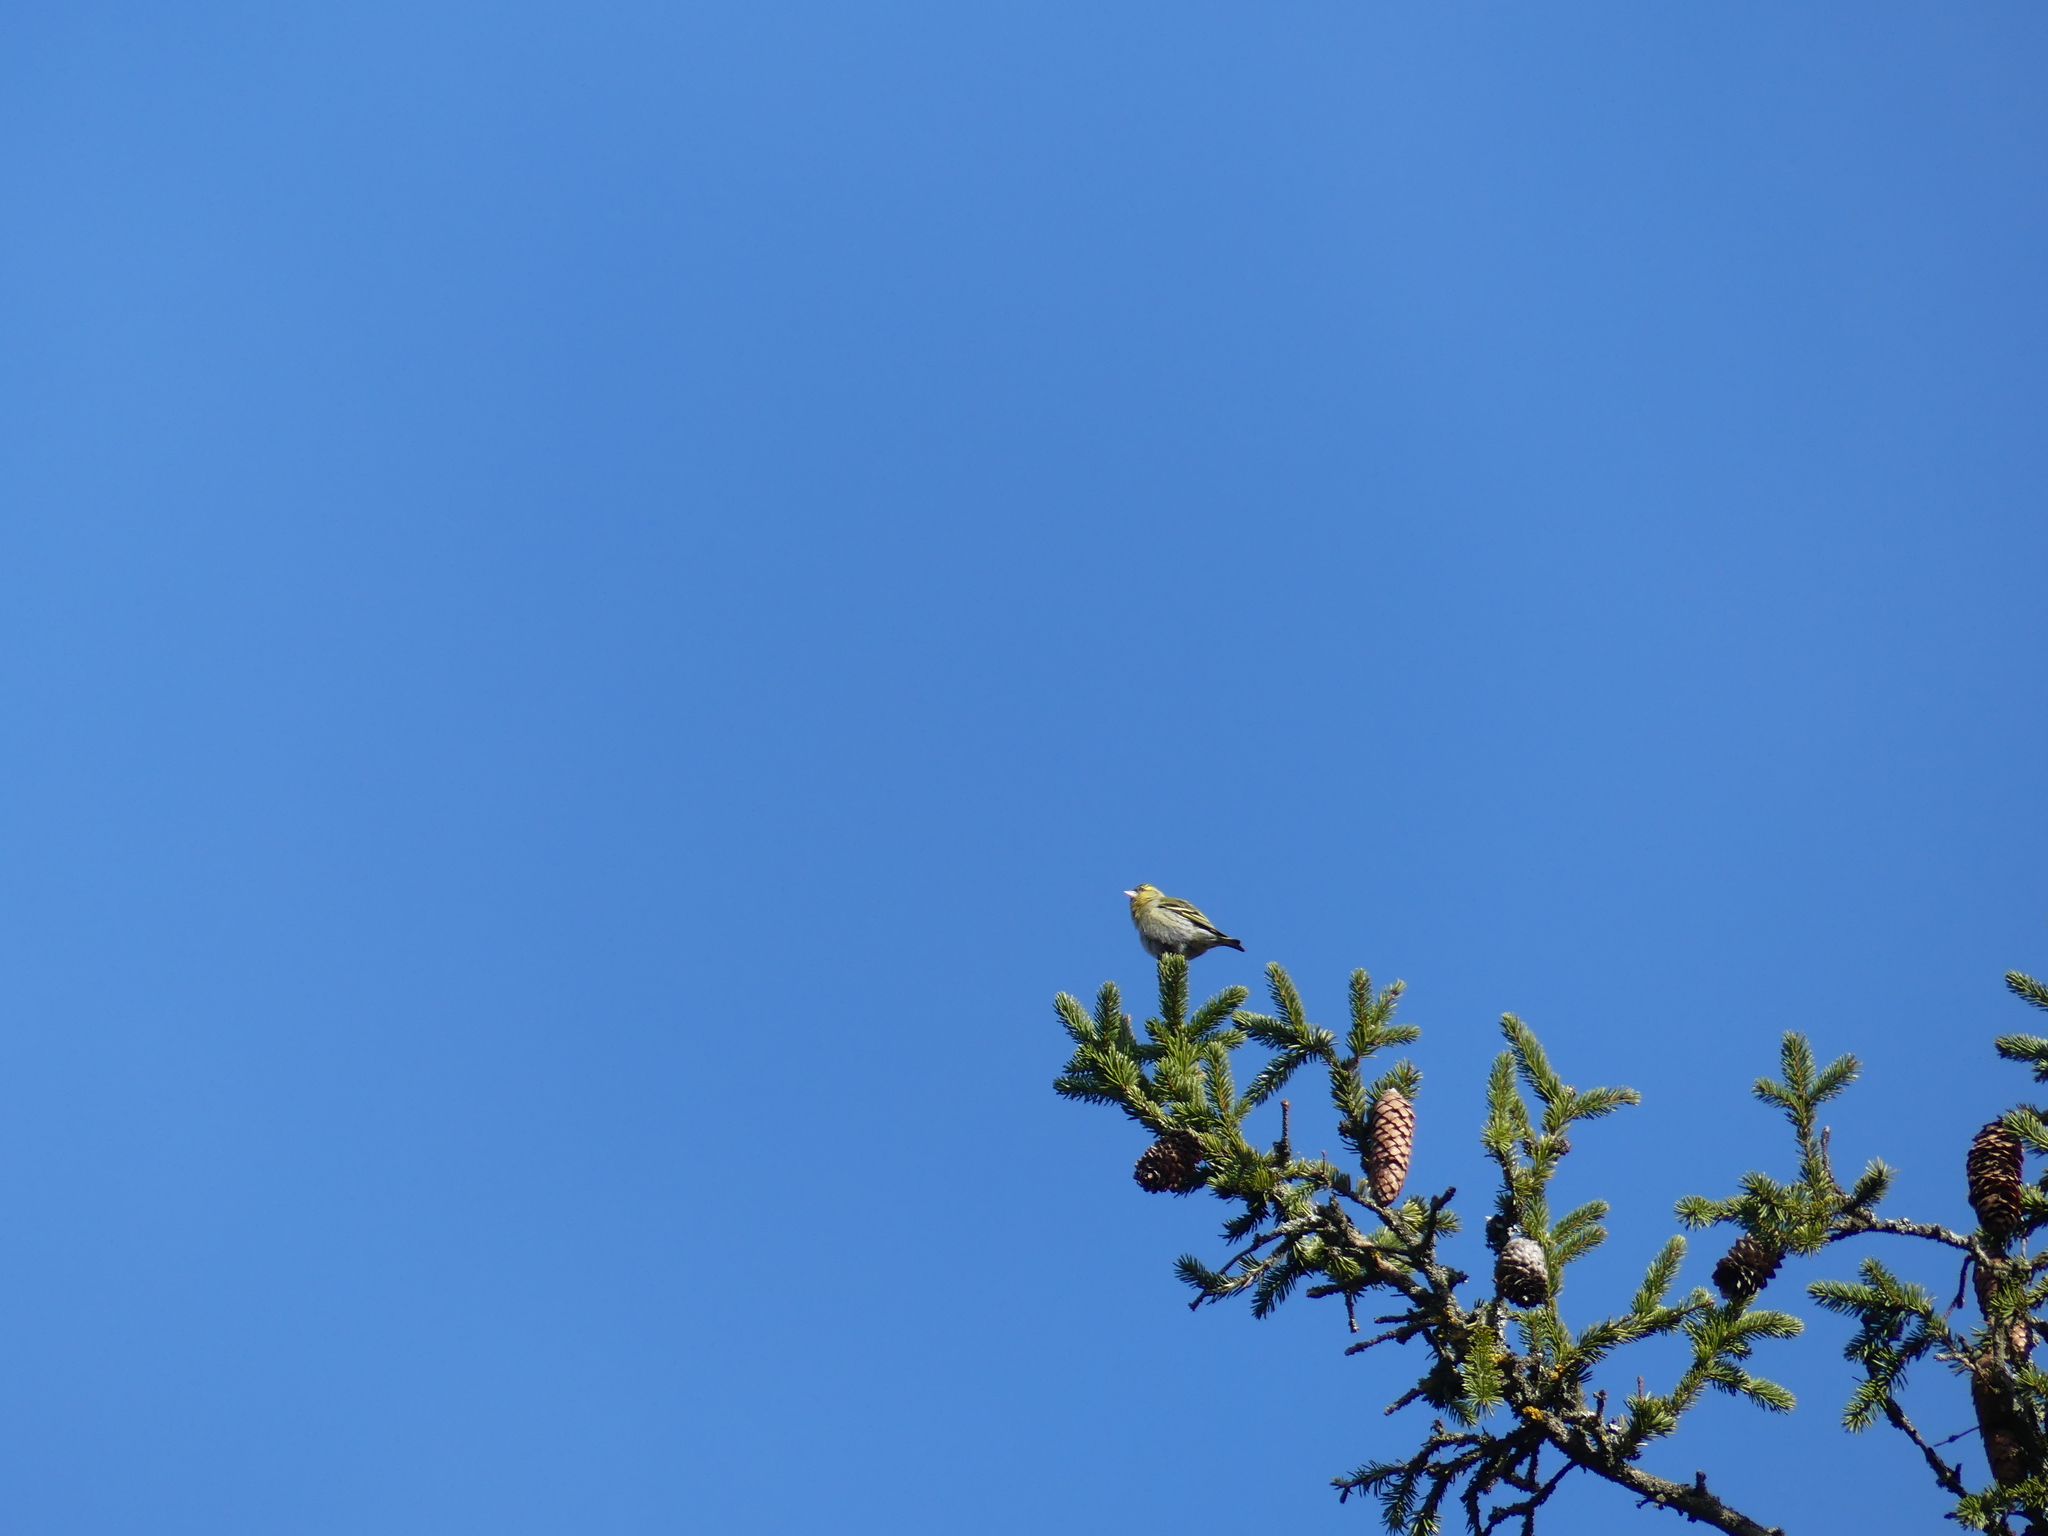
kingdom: Animalia
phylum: Chordata
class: Aves
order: Passeriformes
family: Fringillidae
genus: Spinus
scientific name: Spinus spinus
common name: Eurasian siskin
